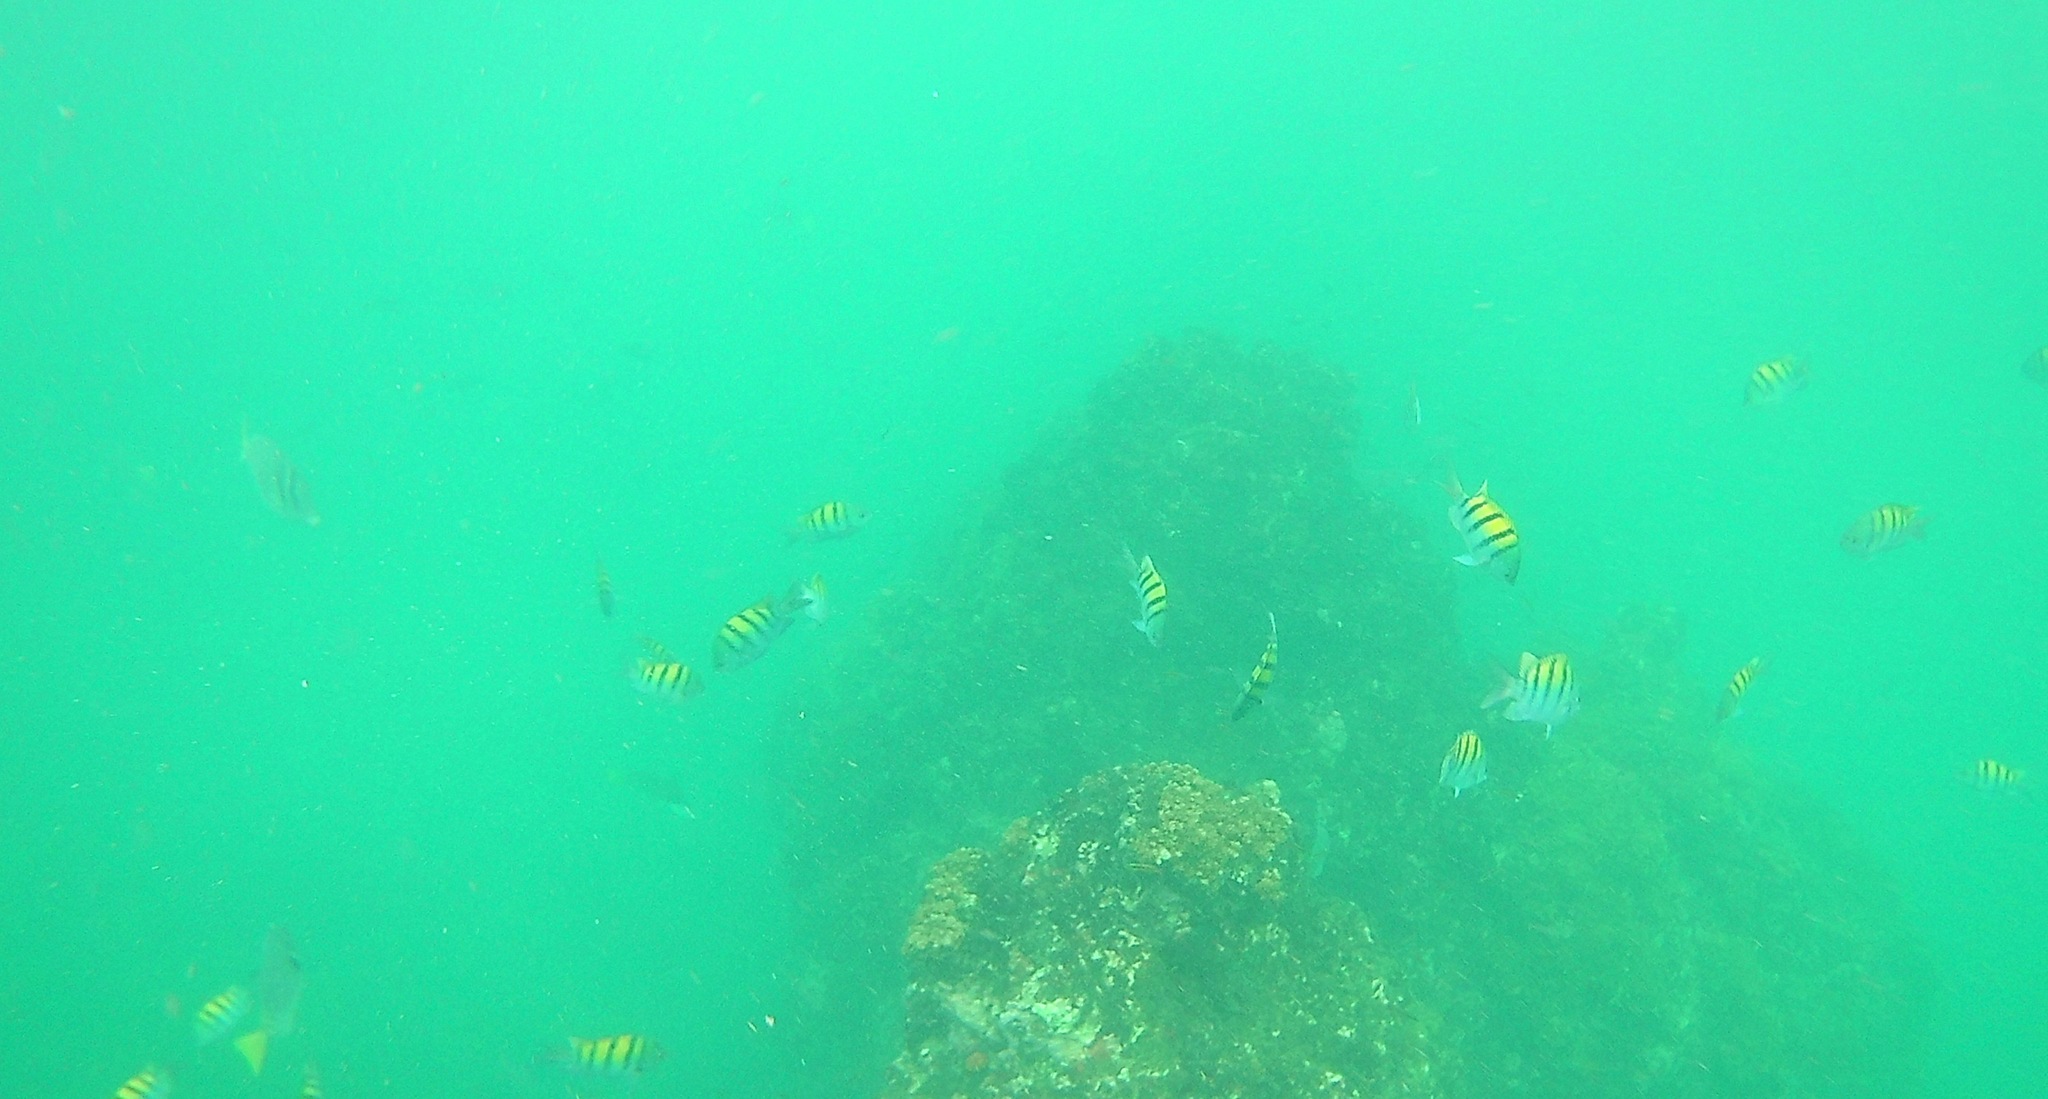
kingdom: Animalia
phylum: Chordata
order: Perciformes
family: Pomacentridae
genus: Abudefduf
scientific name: Abudefduf troschelii
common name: Panamic sergeant major
